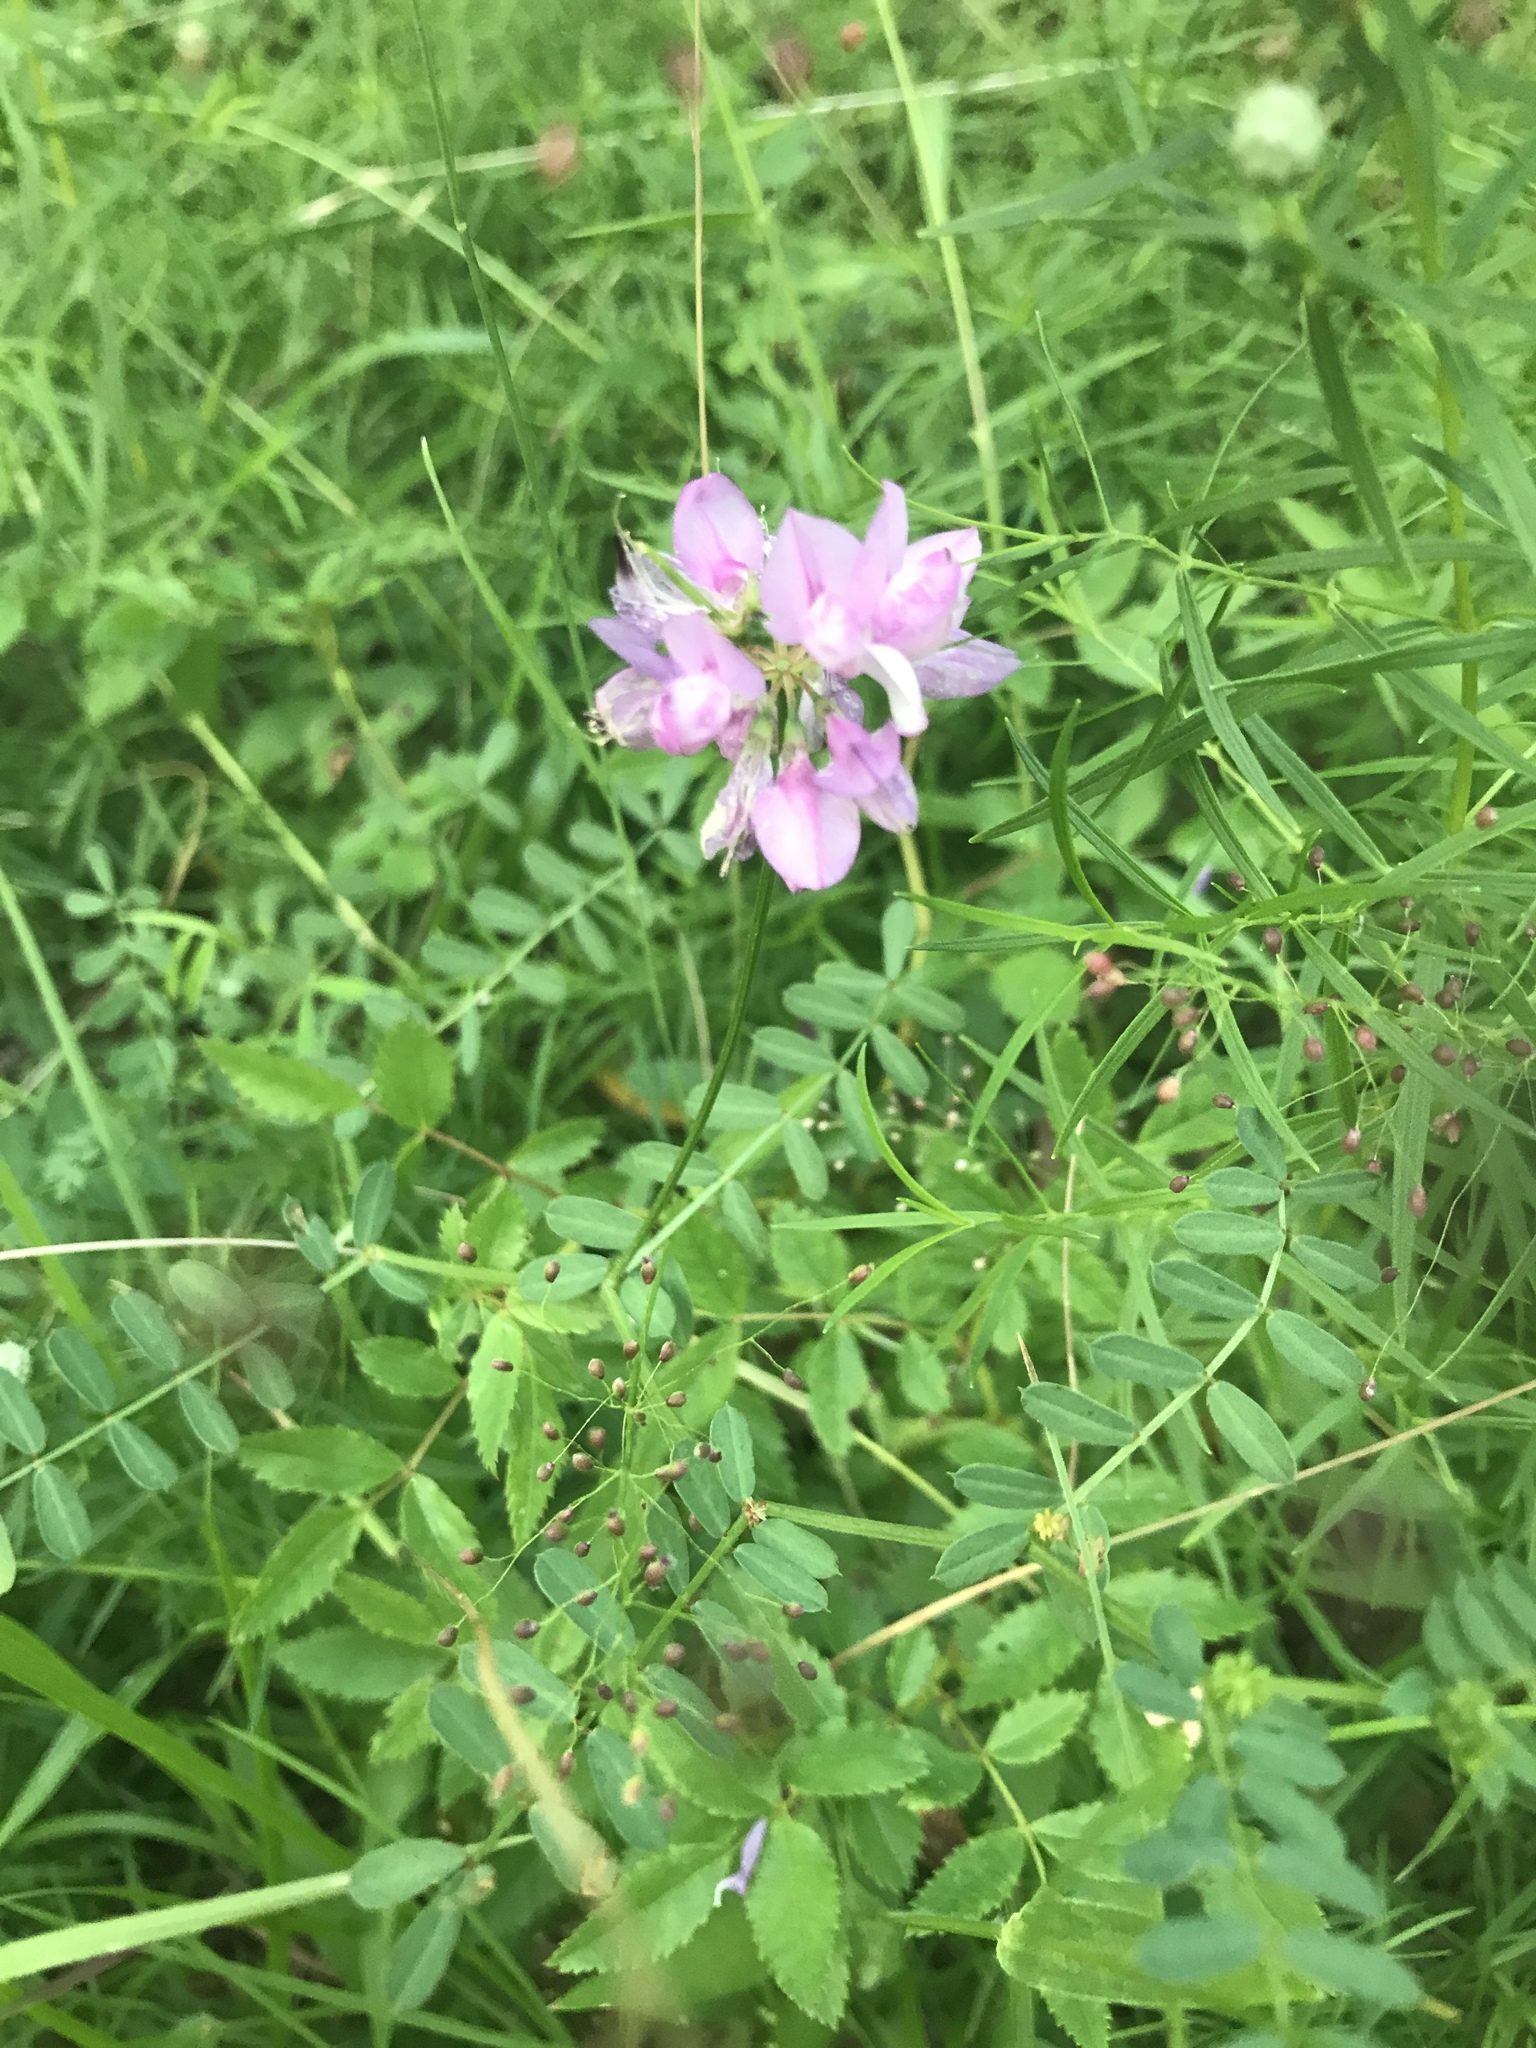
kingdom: Plantae
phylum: Tracheophyta
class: Magnoliopsida
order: Fabales
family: Fabaceae
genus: Coronilla
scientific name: Coronilla varia
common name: Crownvetch
